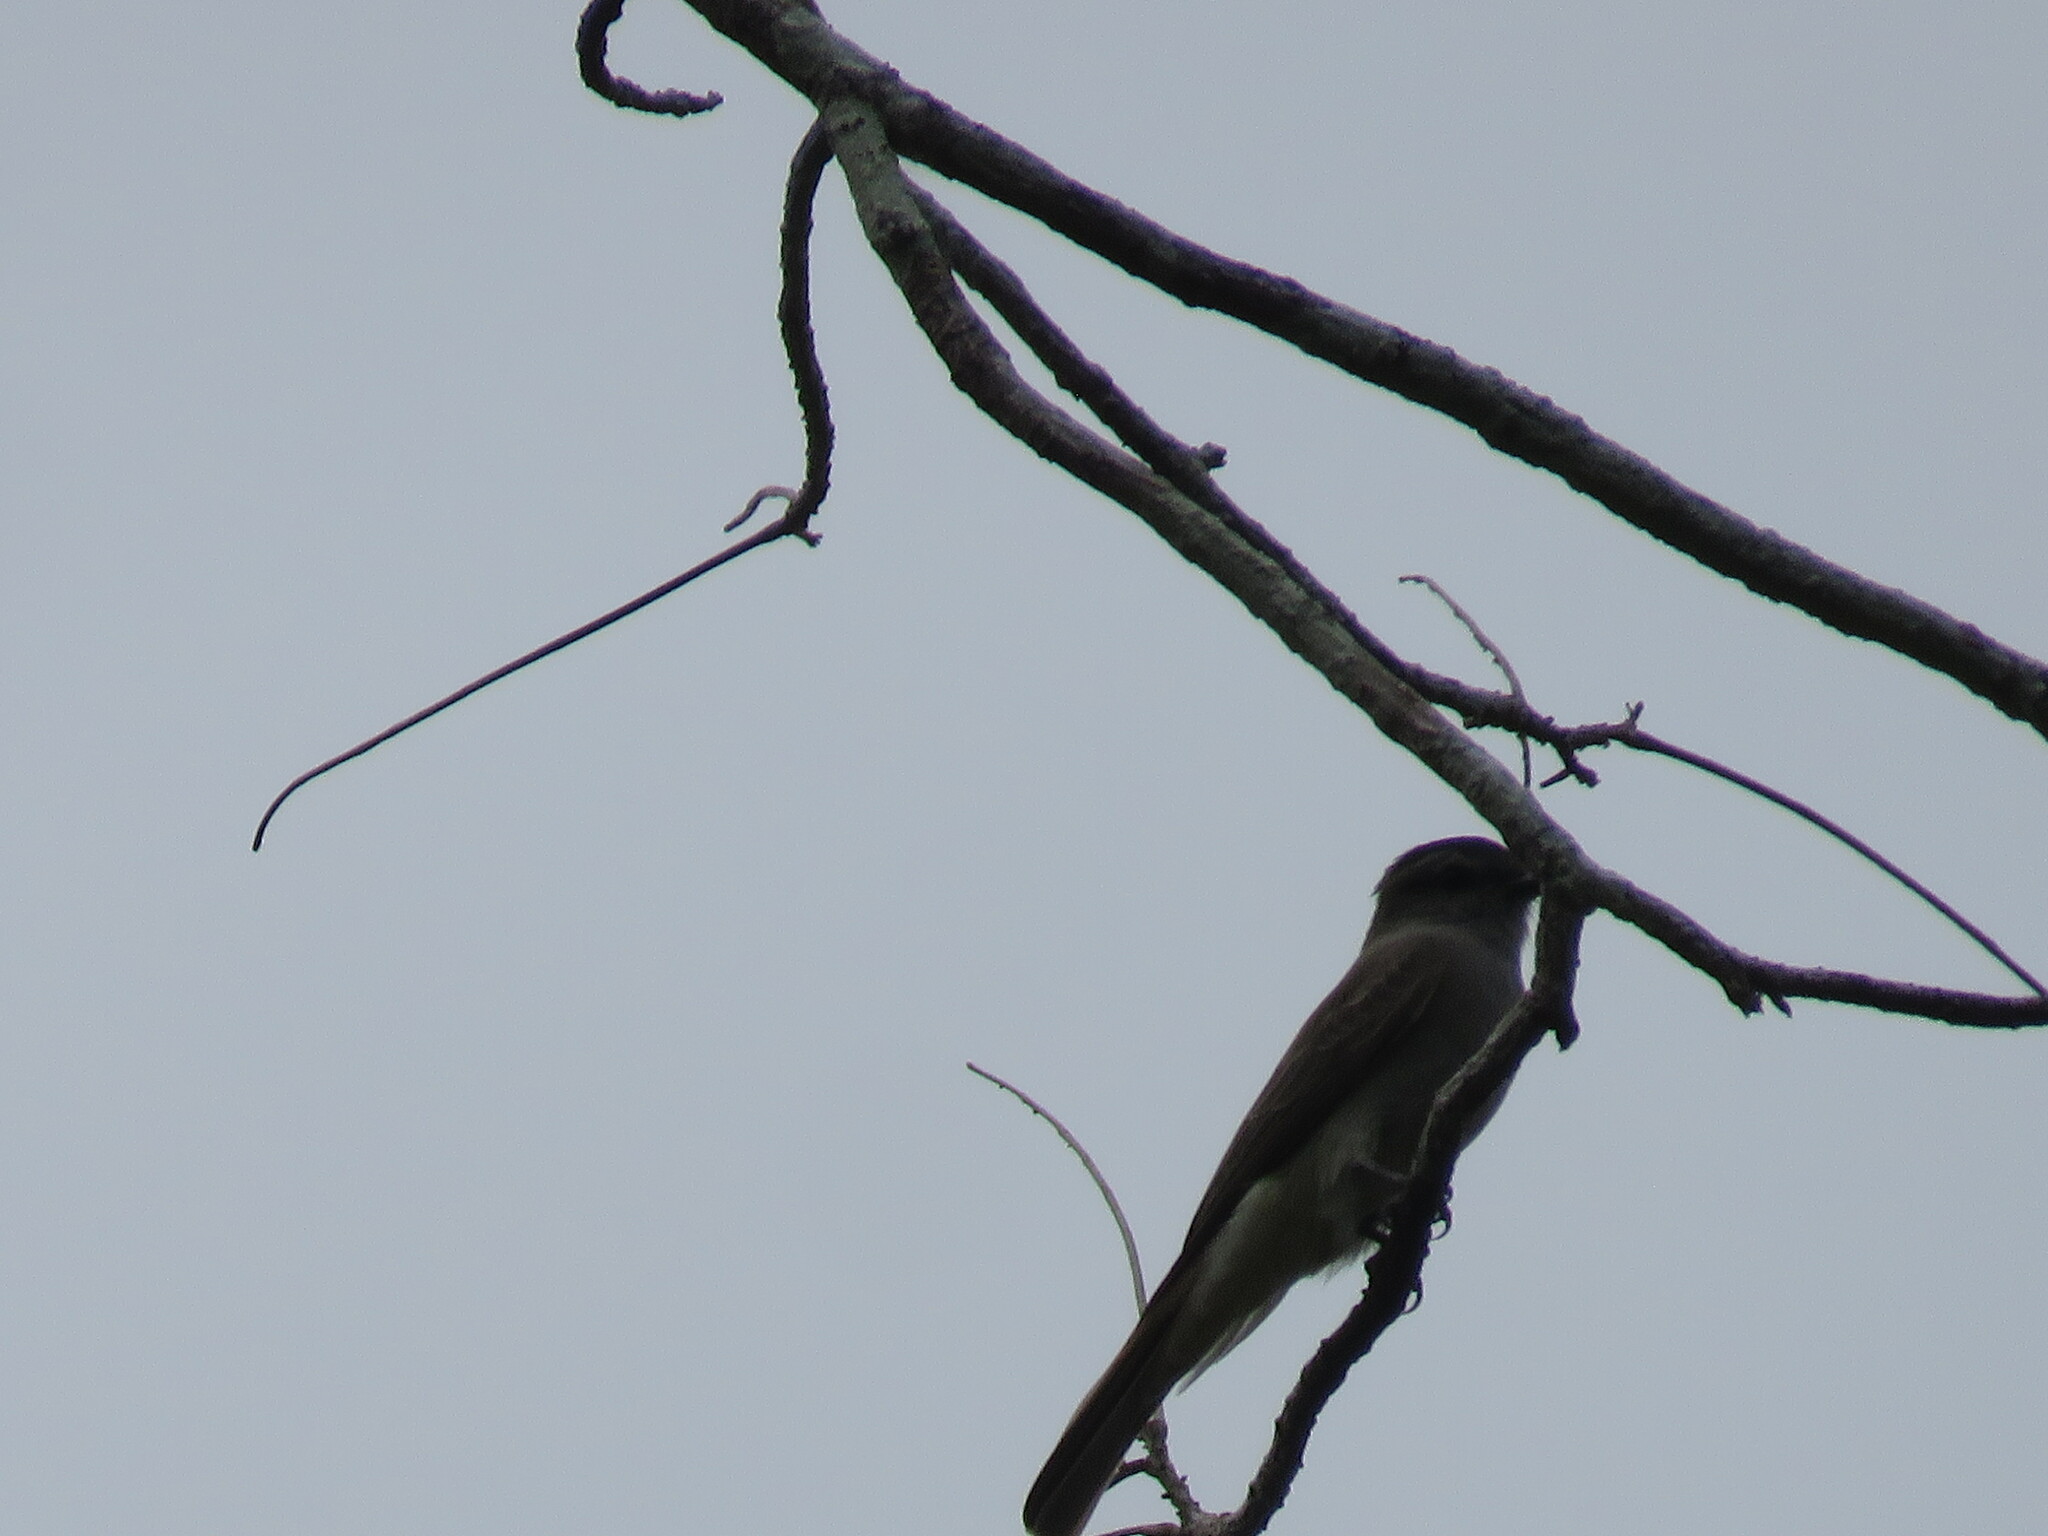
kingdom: Animalia
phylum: Chordata
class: Aves
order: Passeriformes
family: Tyrannidae
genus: Empidonomus
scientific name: Empidonomus aurantioatrocristatus
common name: Crowned slaty flycatcher
